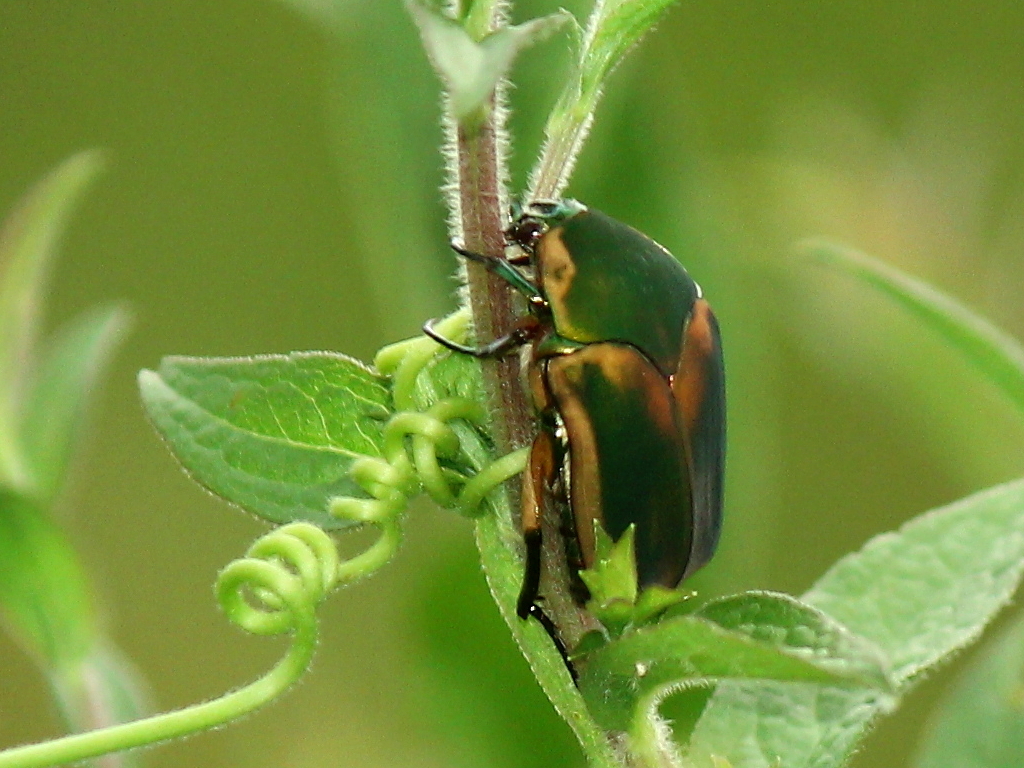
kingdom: Animalia
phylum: Arthropoda
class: Insecta
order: Coleoptera
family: Scarabaeidae
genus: Cotinis
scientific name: Cotinis nitida
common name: Common green june beetle
